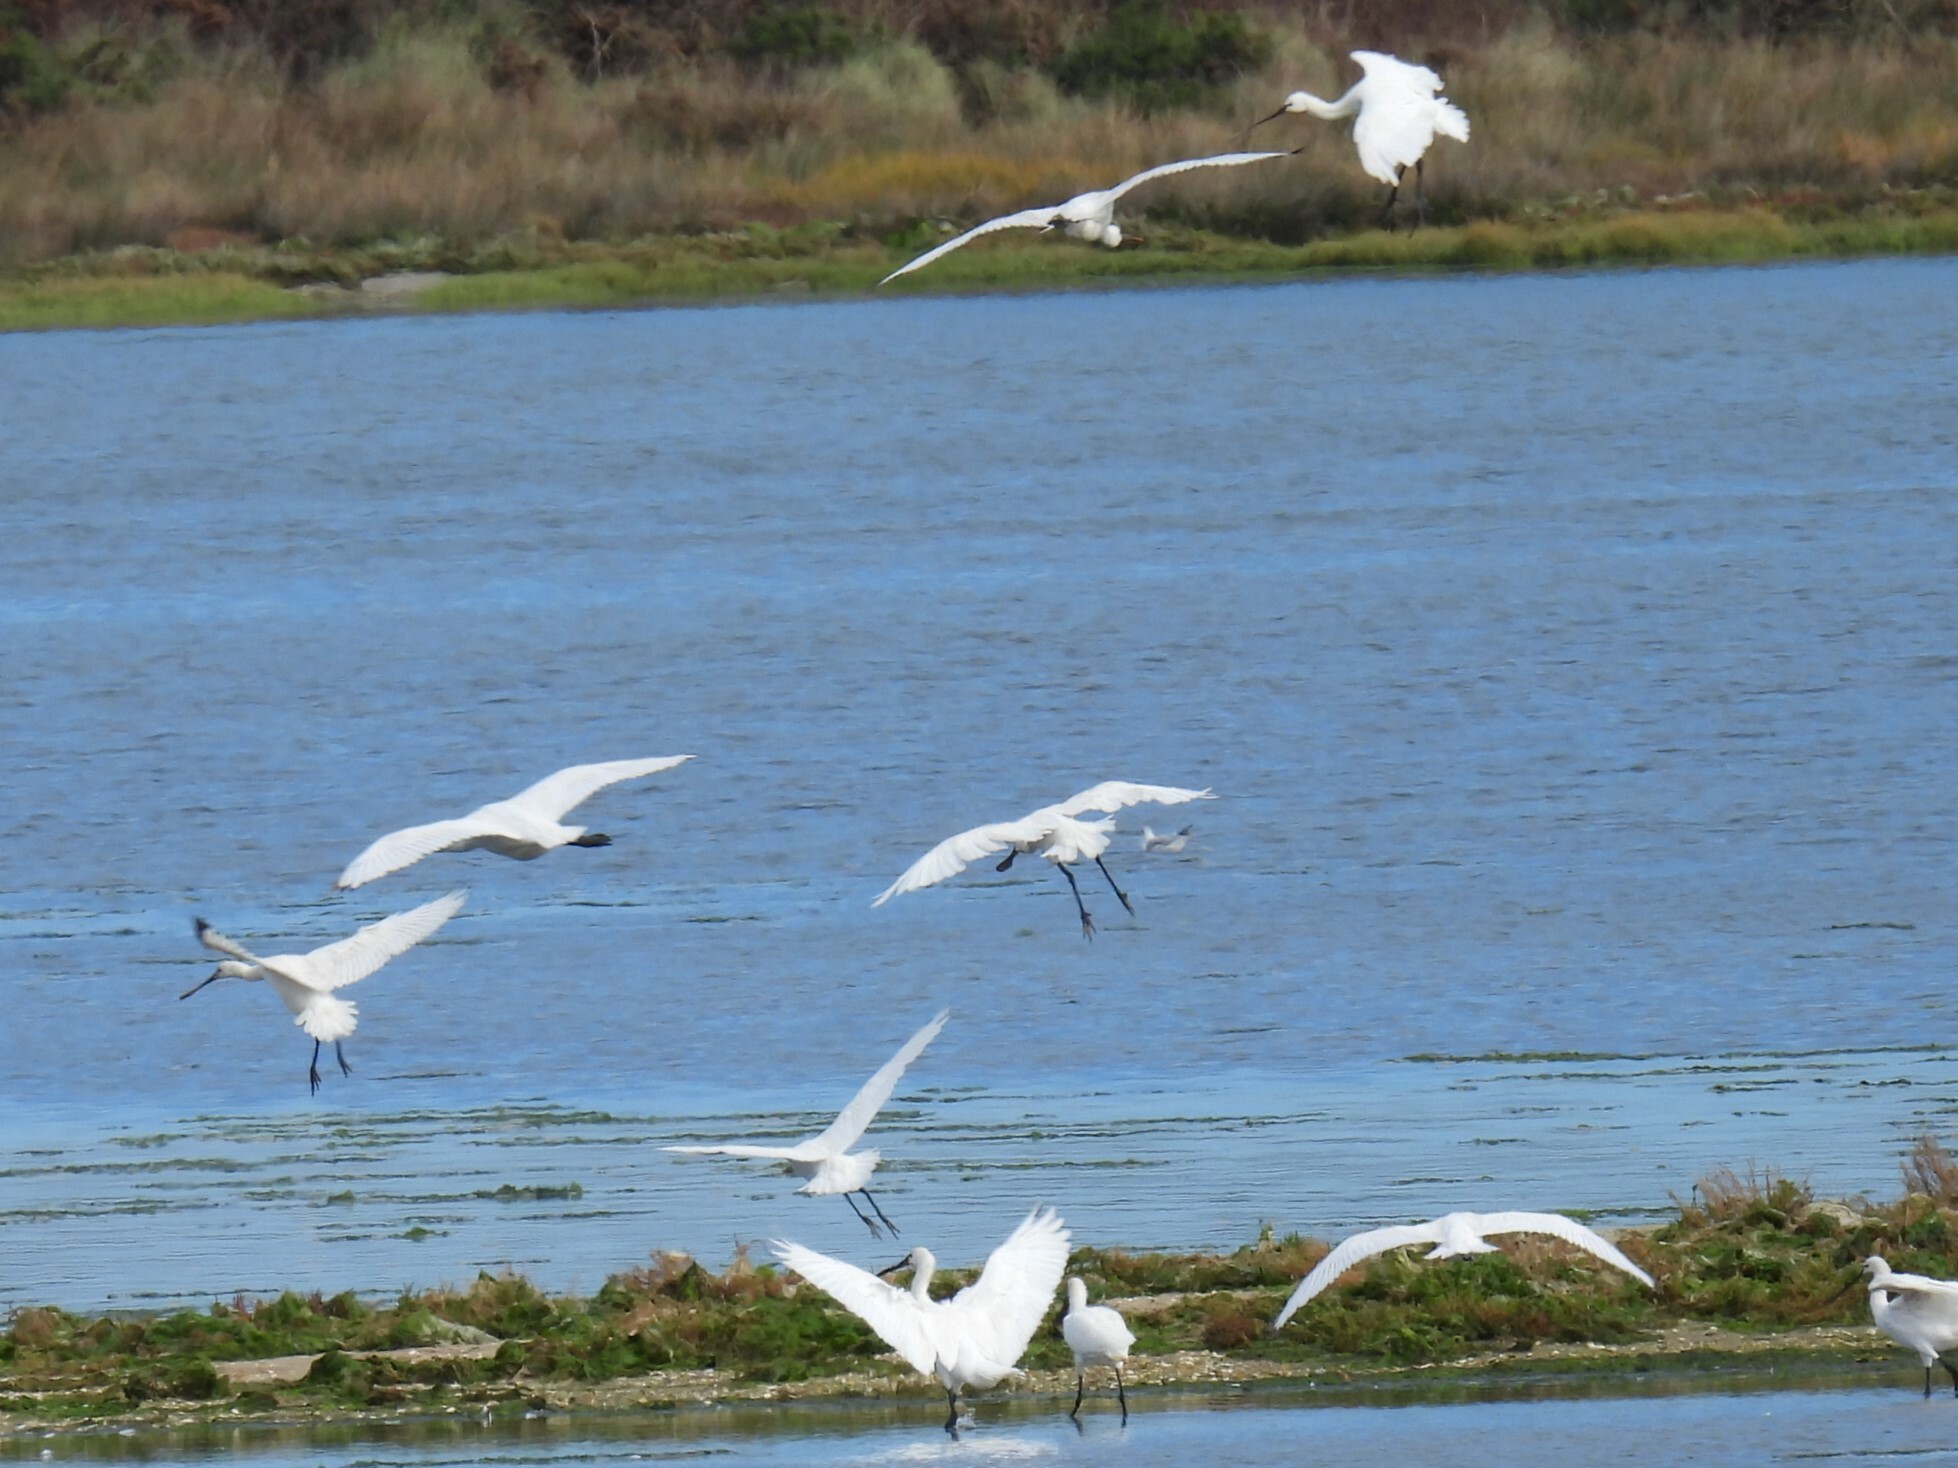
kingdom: Animalia
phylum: Chordata
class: Aves
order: Pelecaniformes
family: Threskiornithidae
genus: Platalea
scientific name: Platalea leucorodia
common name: Eurasian spoonbill
